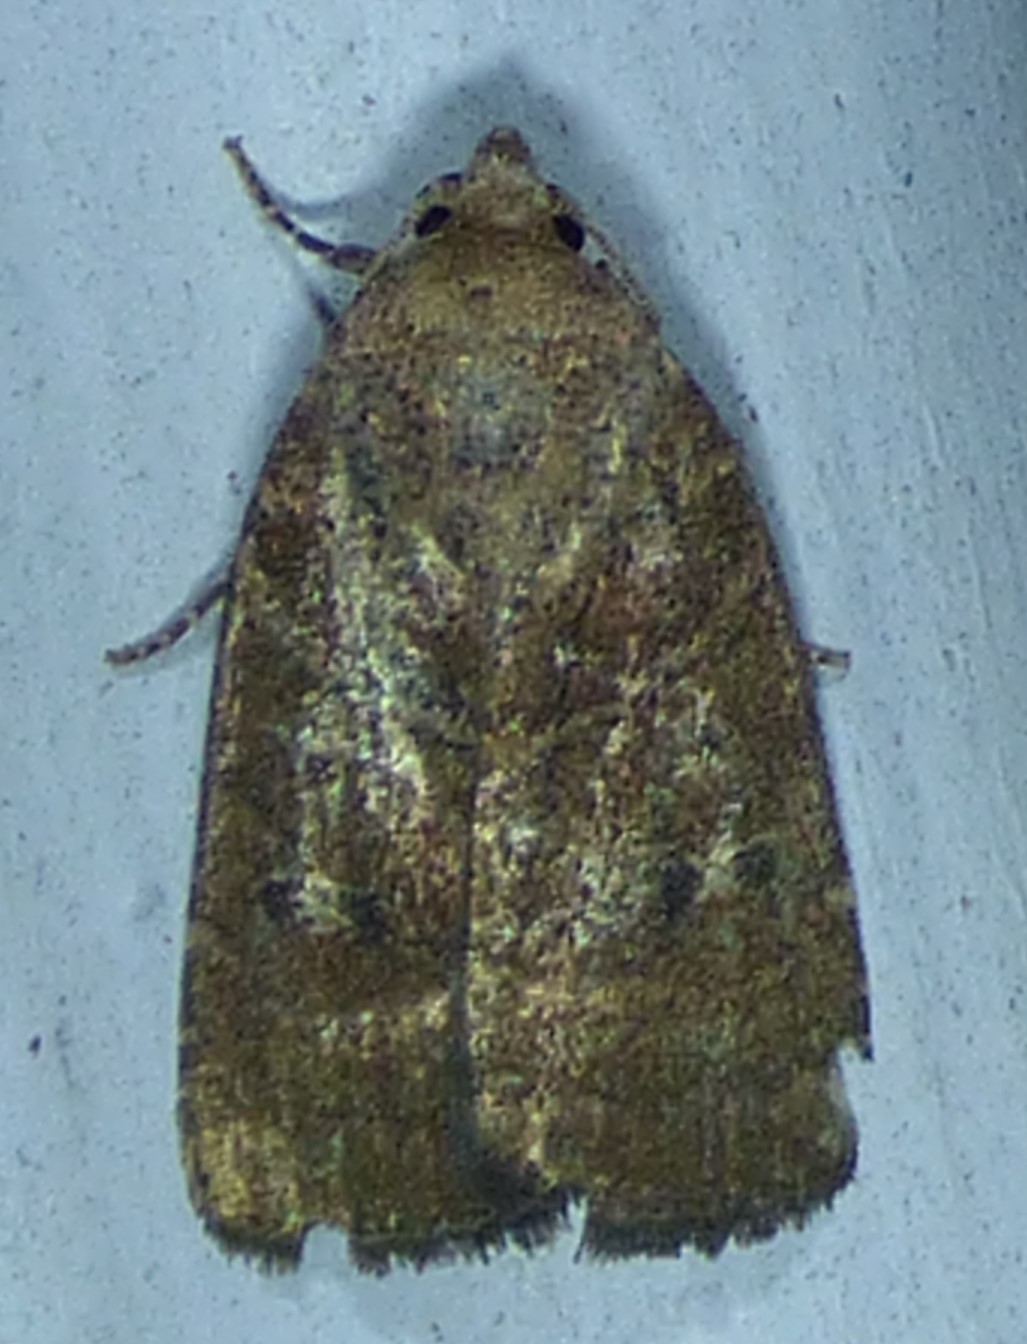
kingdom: Animalia
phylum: Arthropoda
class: Insecta
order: Lepidoptera
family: Noctuidae
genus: Elaphria
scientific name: Elaphria grata
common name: Grateful midget moth
